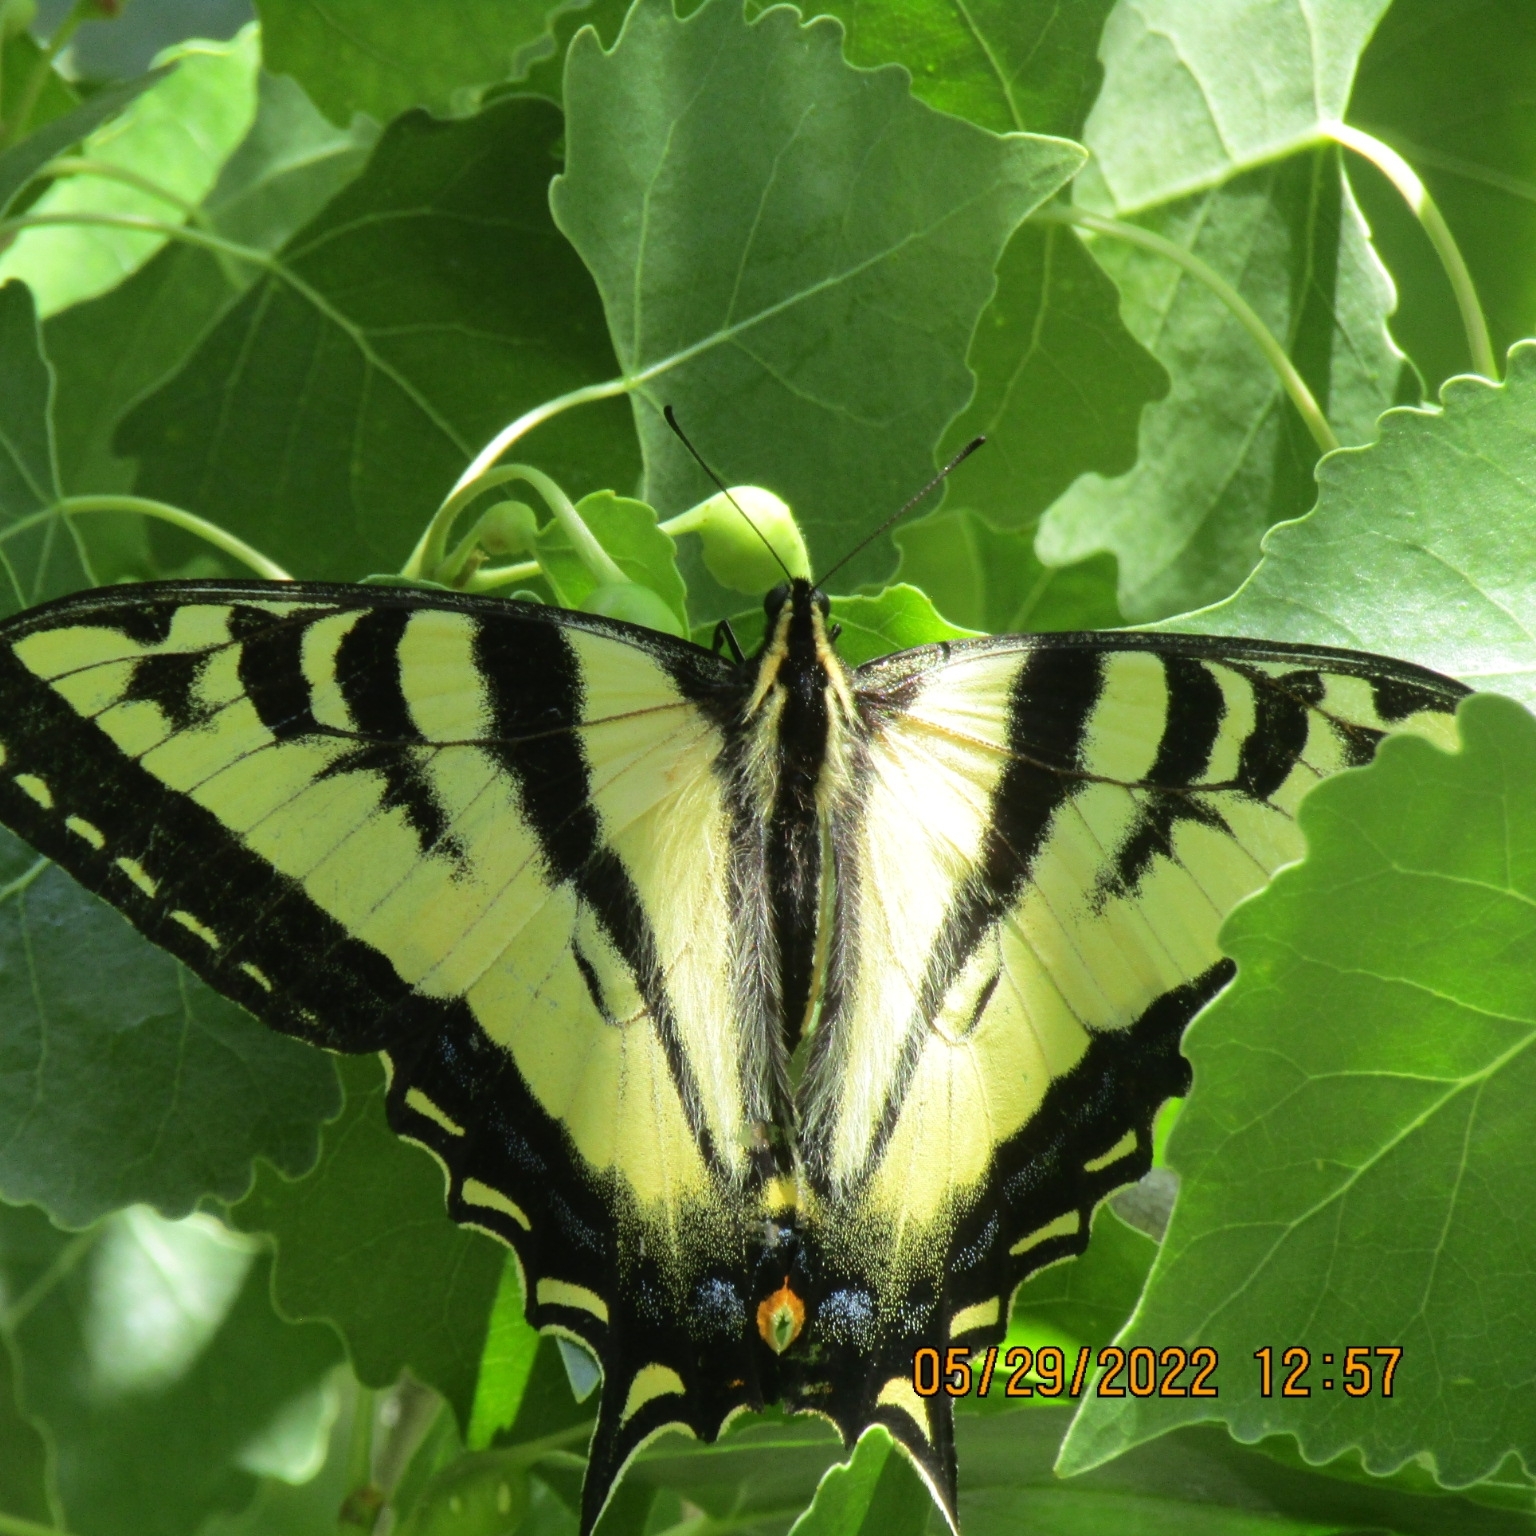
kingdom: Animalia
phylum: Arthropoda
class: Insecta
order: Lepidoptera
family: Papilionidae
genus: Papilio
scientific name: Papilio rutulus
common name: Western tiger swallowtail
